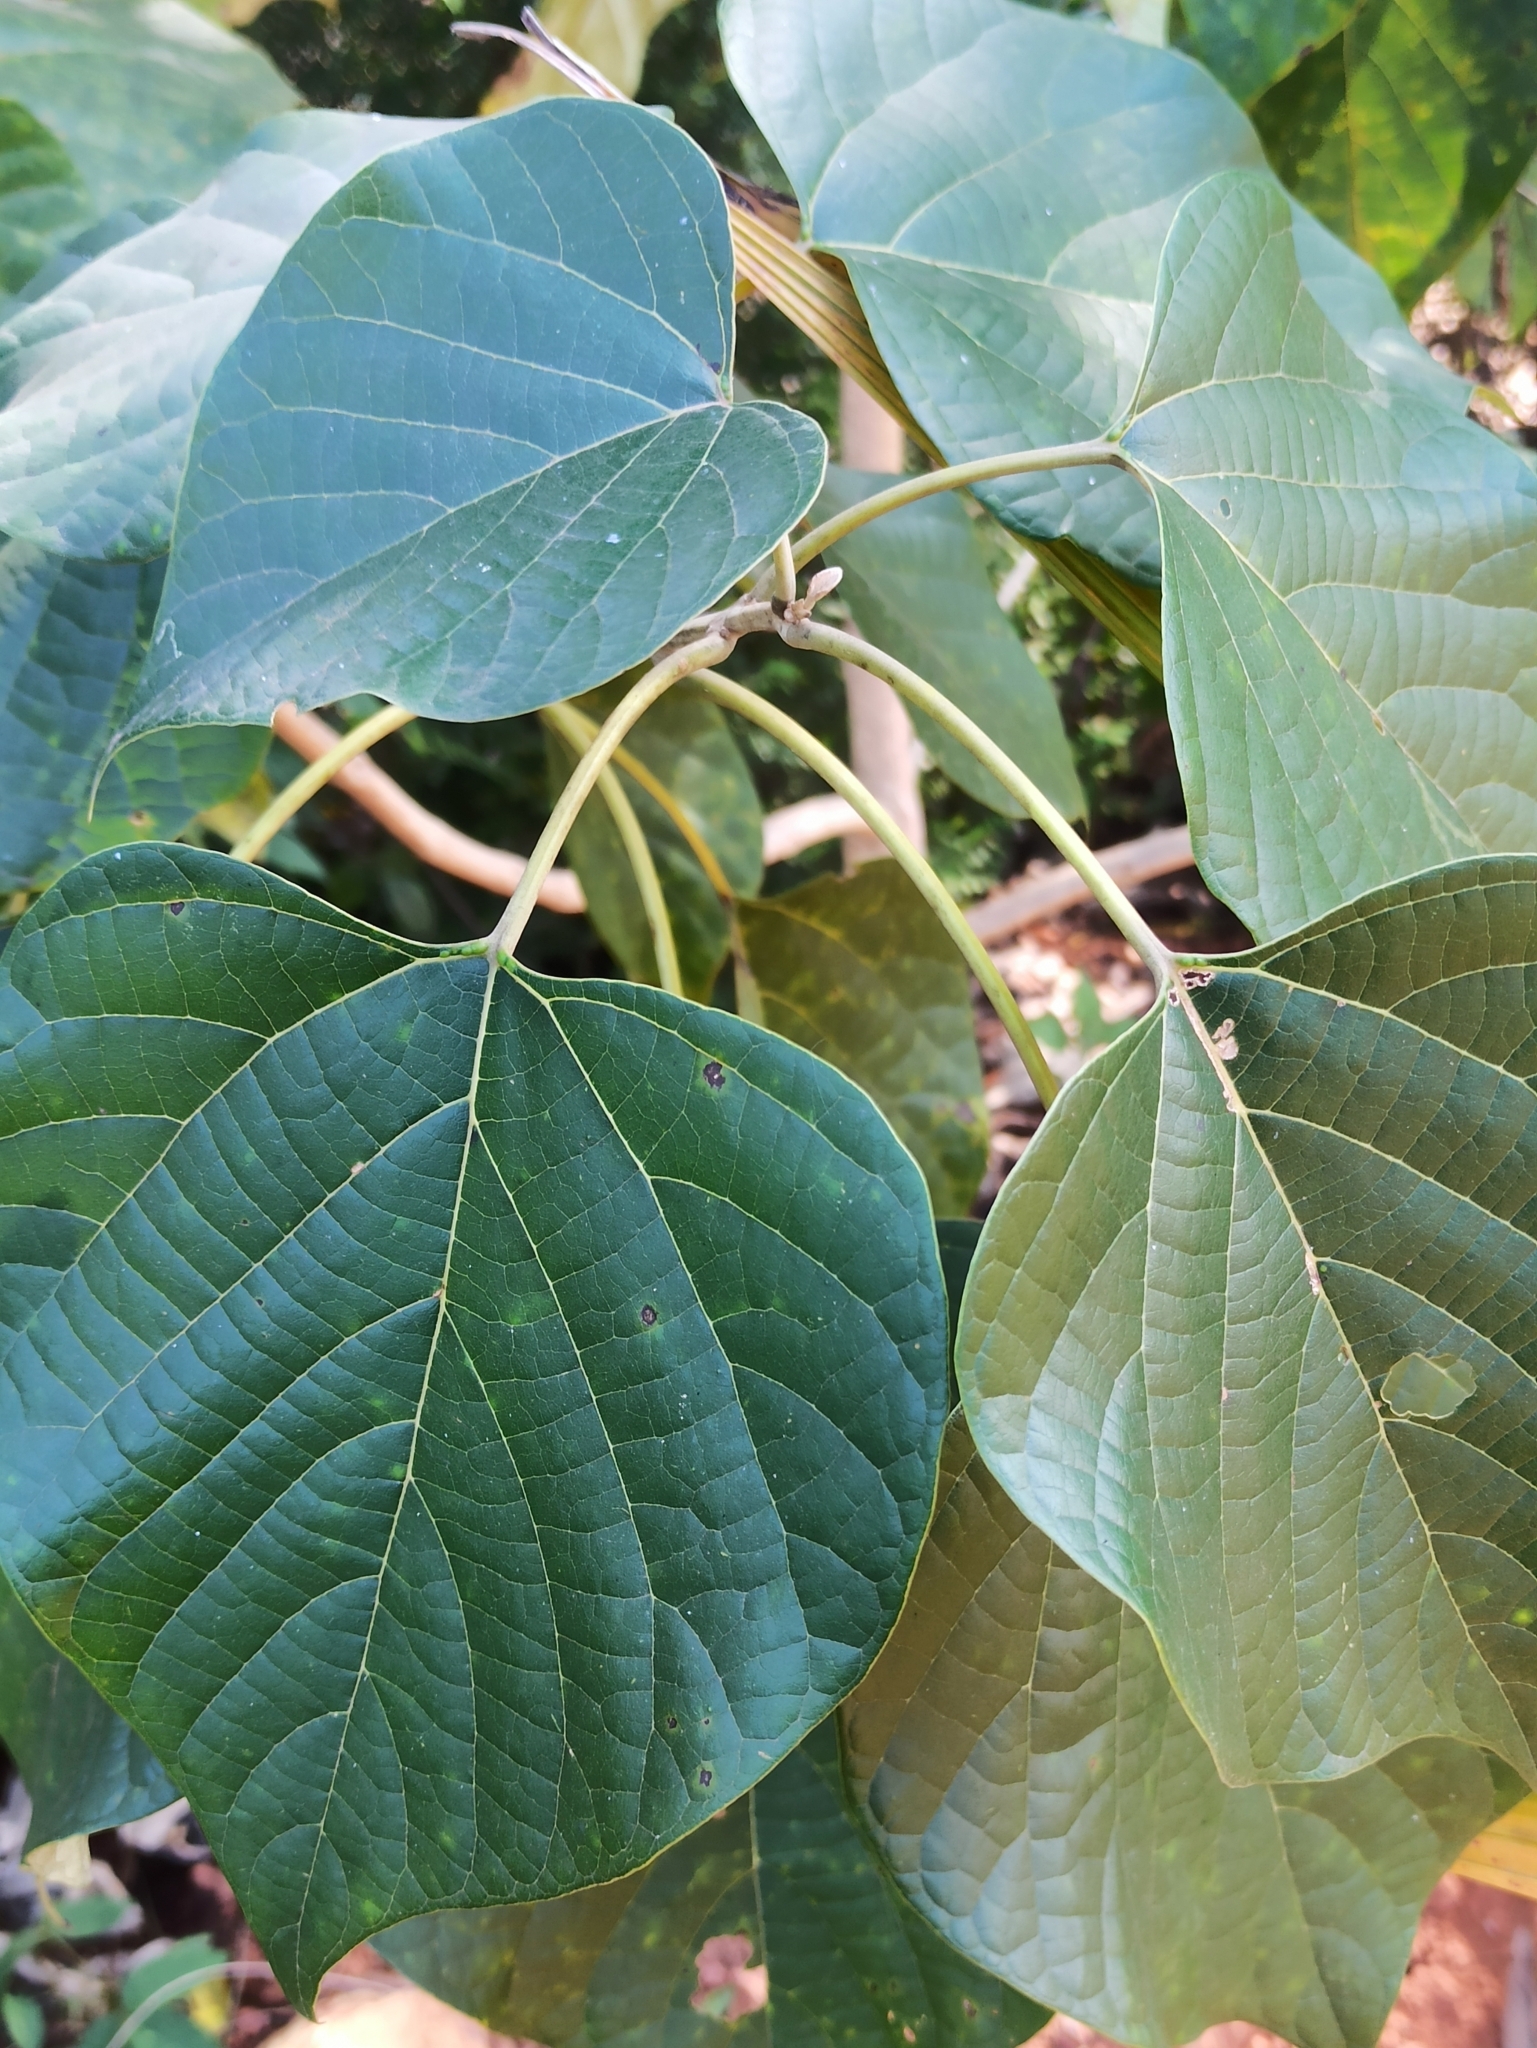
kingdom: Plantae
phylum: Tracheophyta
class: Magnoliopsida
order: Lamiales
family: Lamiaceae
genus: Gmelina
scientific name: Gmelina arborea
